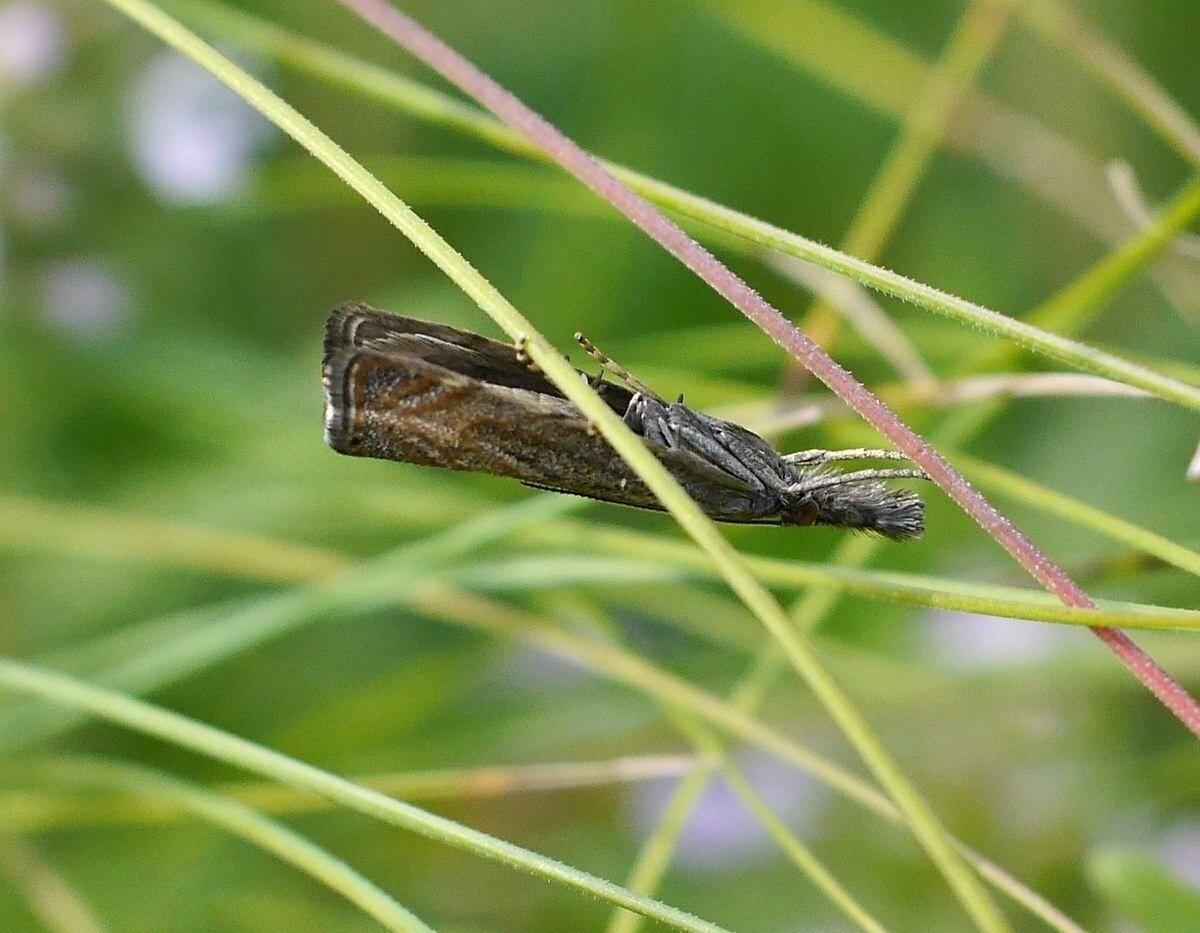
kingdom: Animalia
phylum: Arthropoda
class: Insecta
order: Lepidoptera
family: Crambidae
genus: Platytes
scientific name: Platytes cerusella
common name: Little grass-veneer
